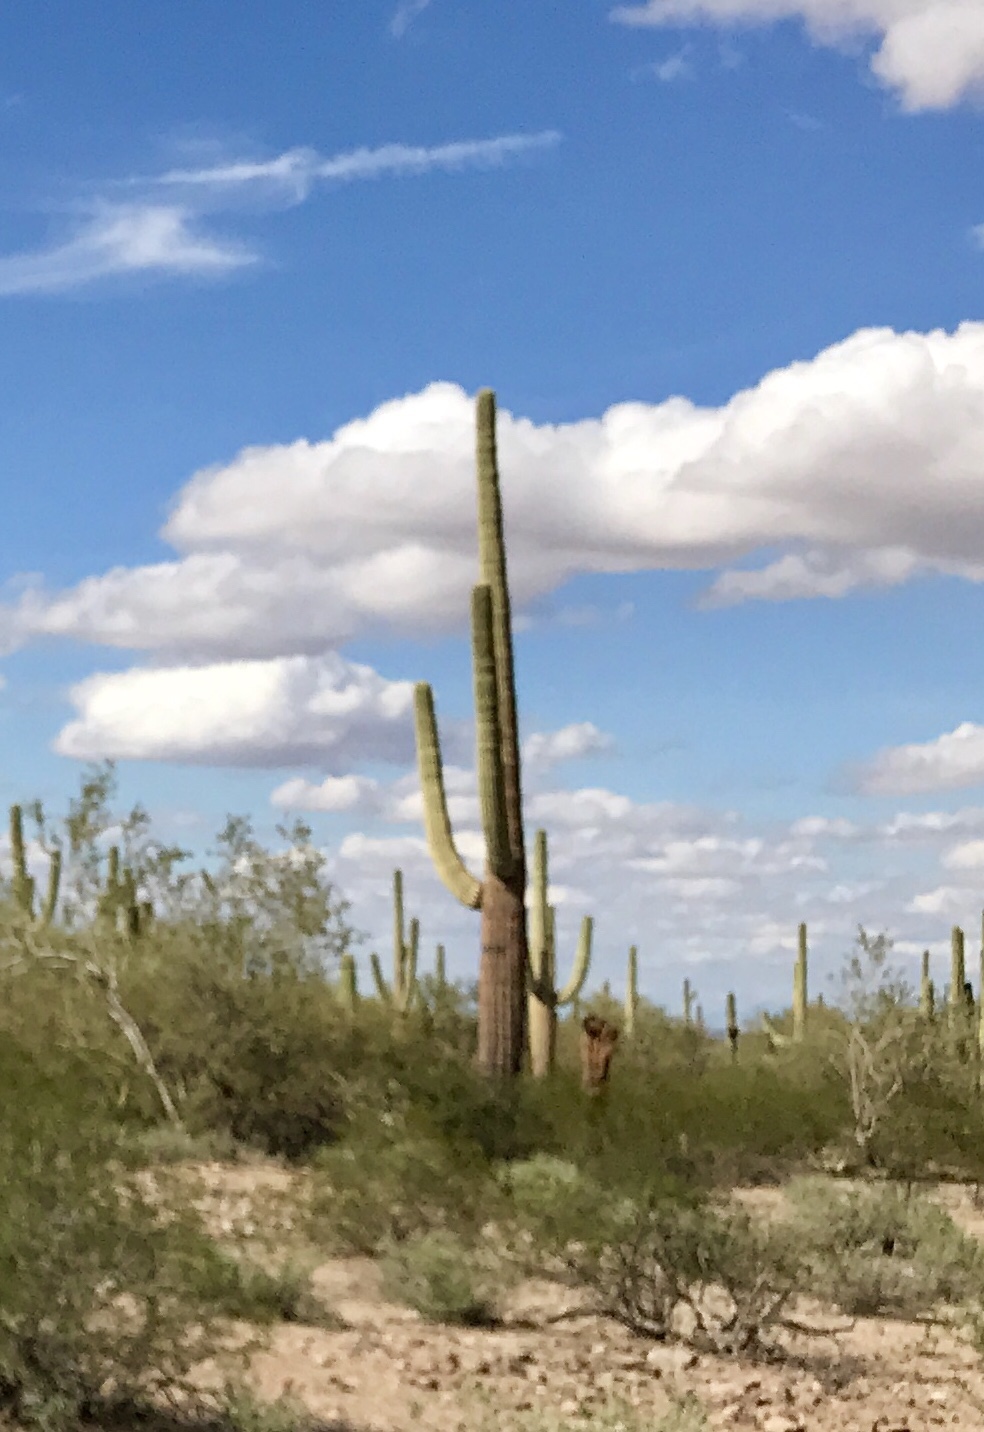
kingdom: Plantae
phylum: Tracheophyta
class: Magnoliopsida
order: Caryophyllales
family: Cactaceae
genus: Carnegiea
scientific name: Carnegiea gigantea
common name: Saguaro
